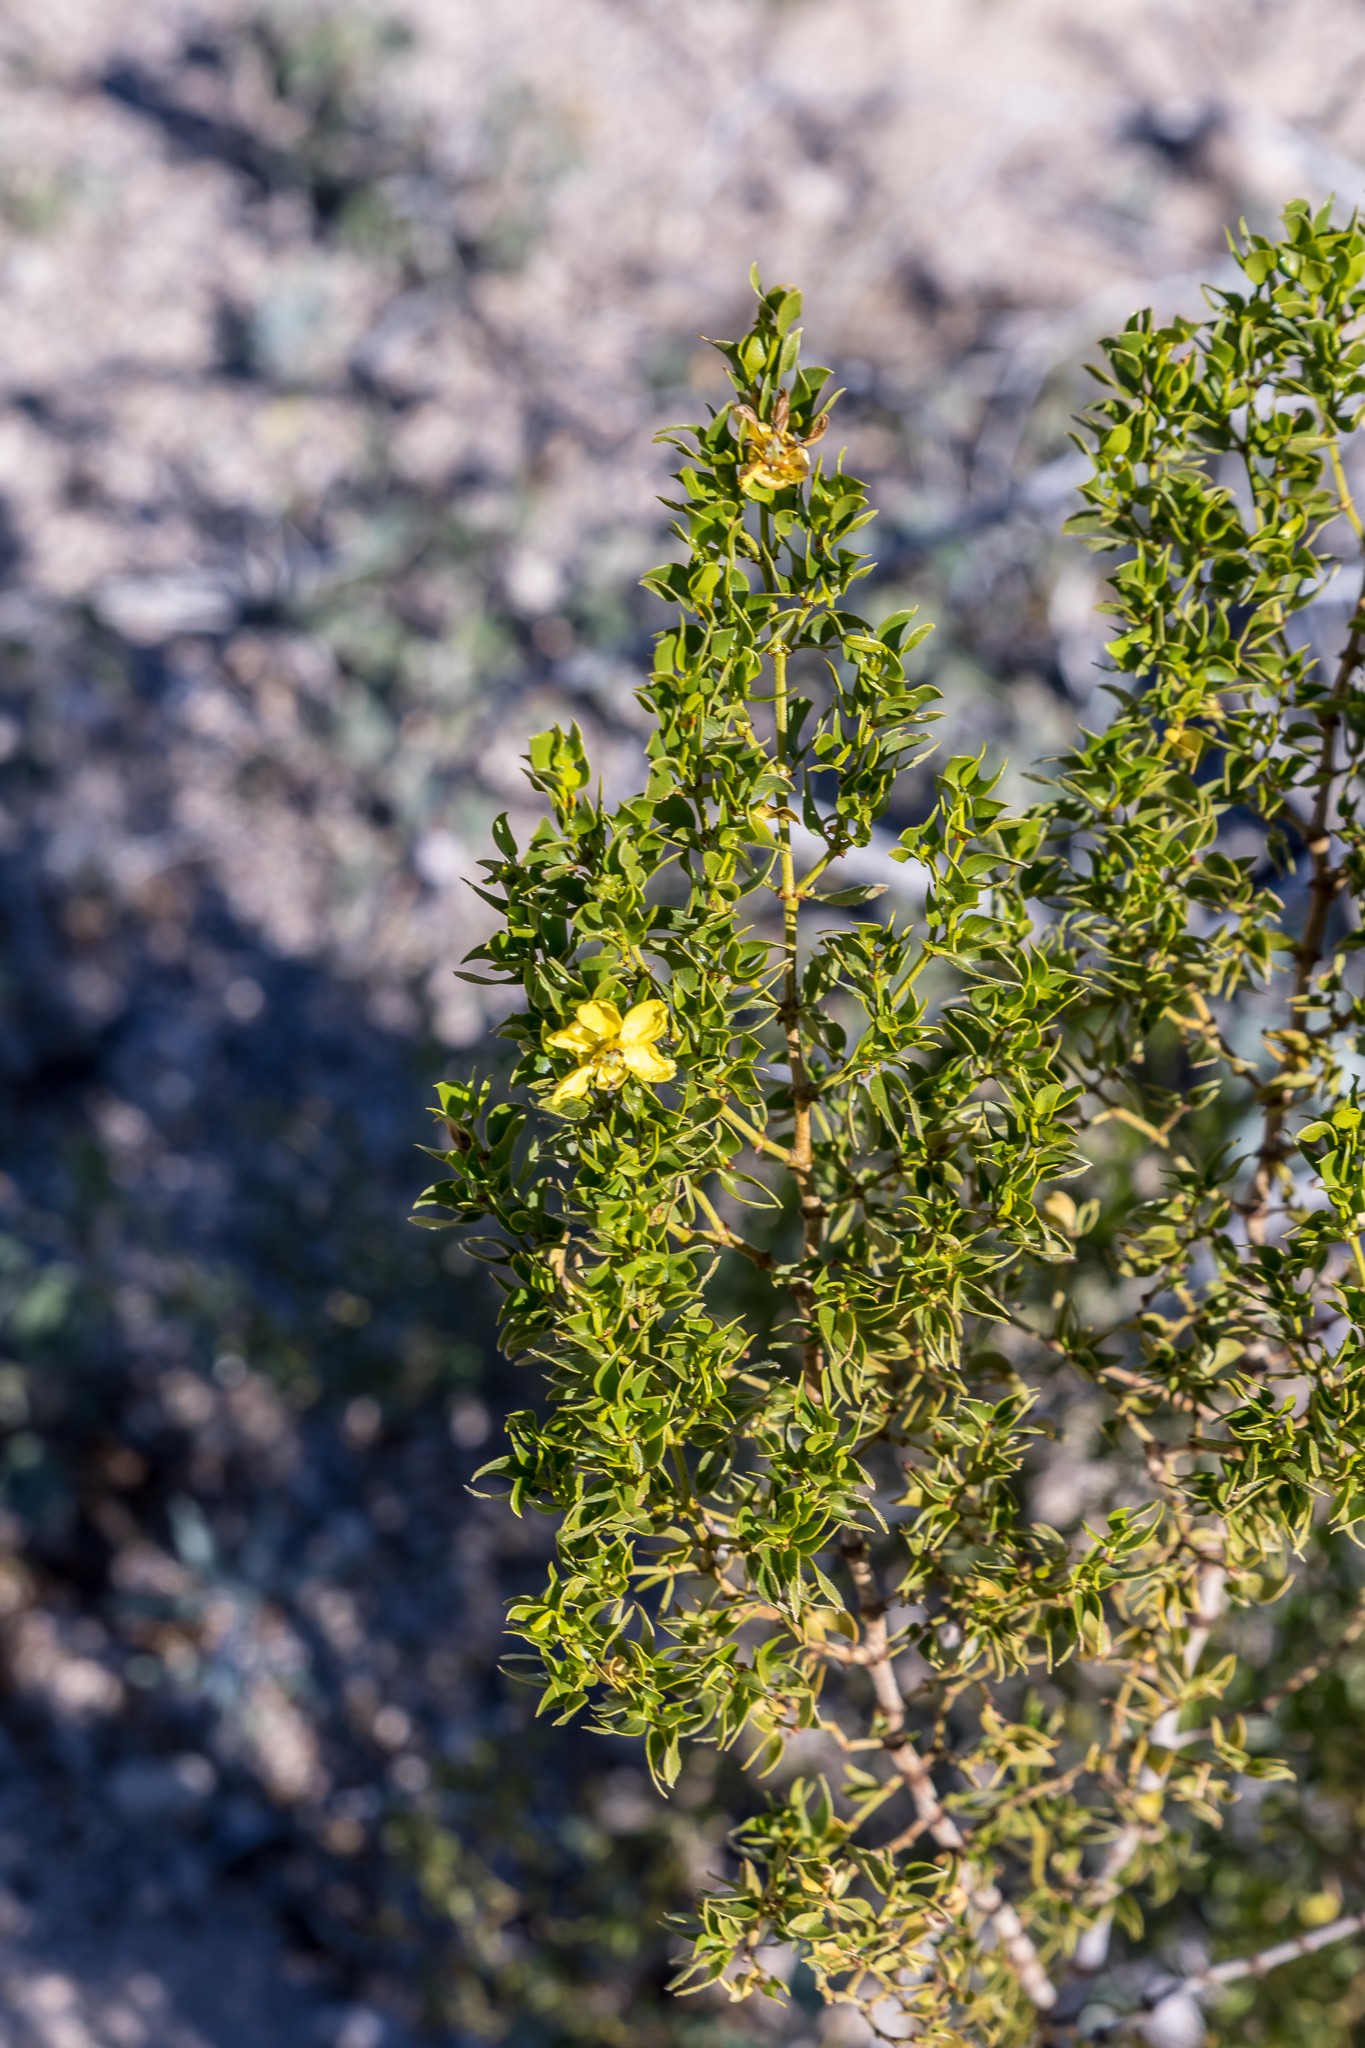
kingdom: Plantae
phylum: Tracheophyta
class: Magnoliopsida
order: Zygophyllales
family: Zygophyllaceae
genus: Larrea
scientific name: Larrea tridentata
